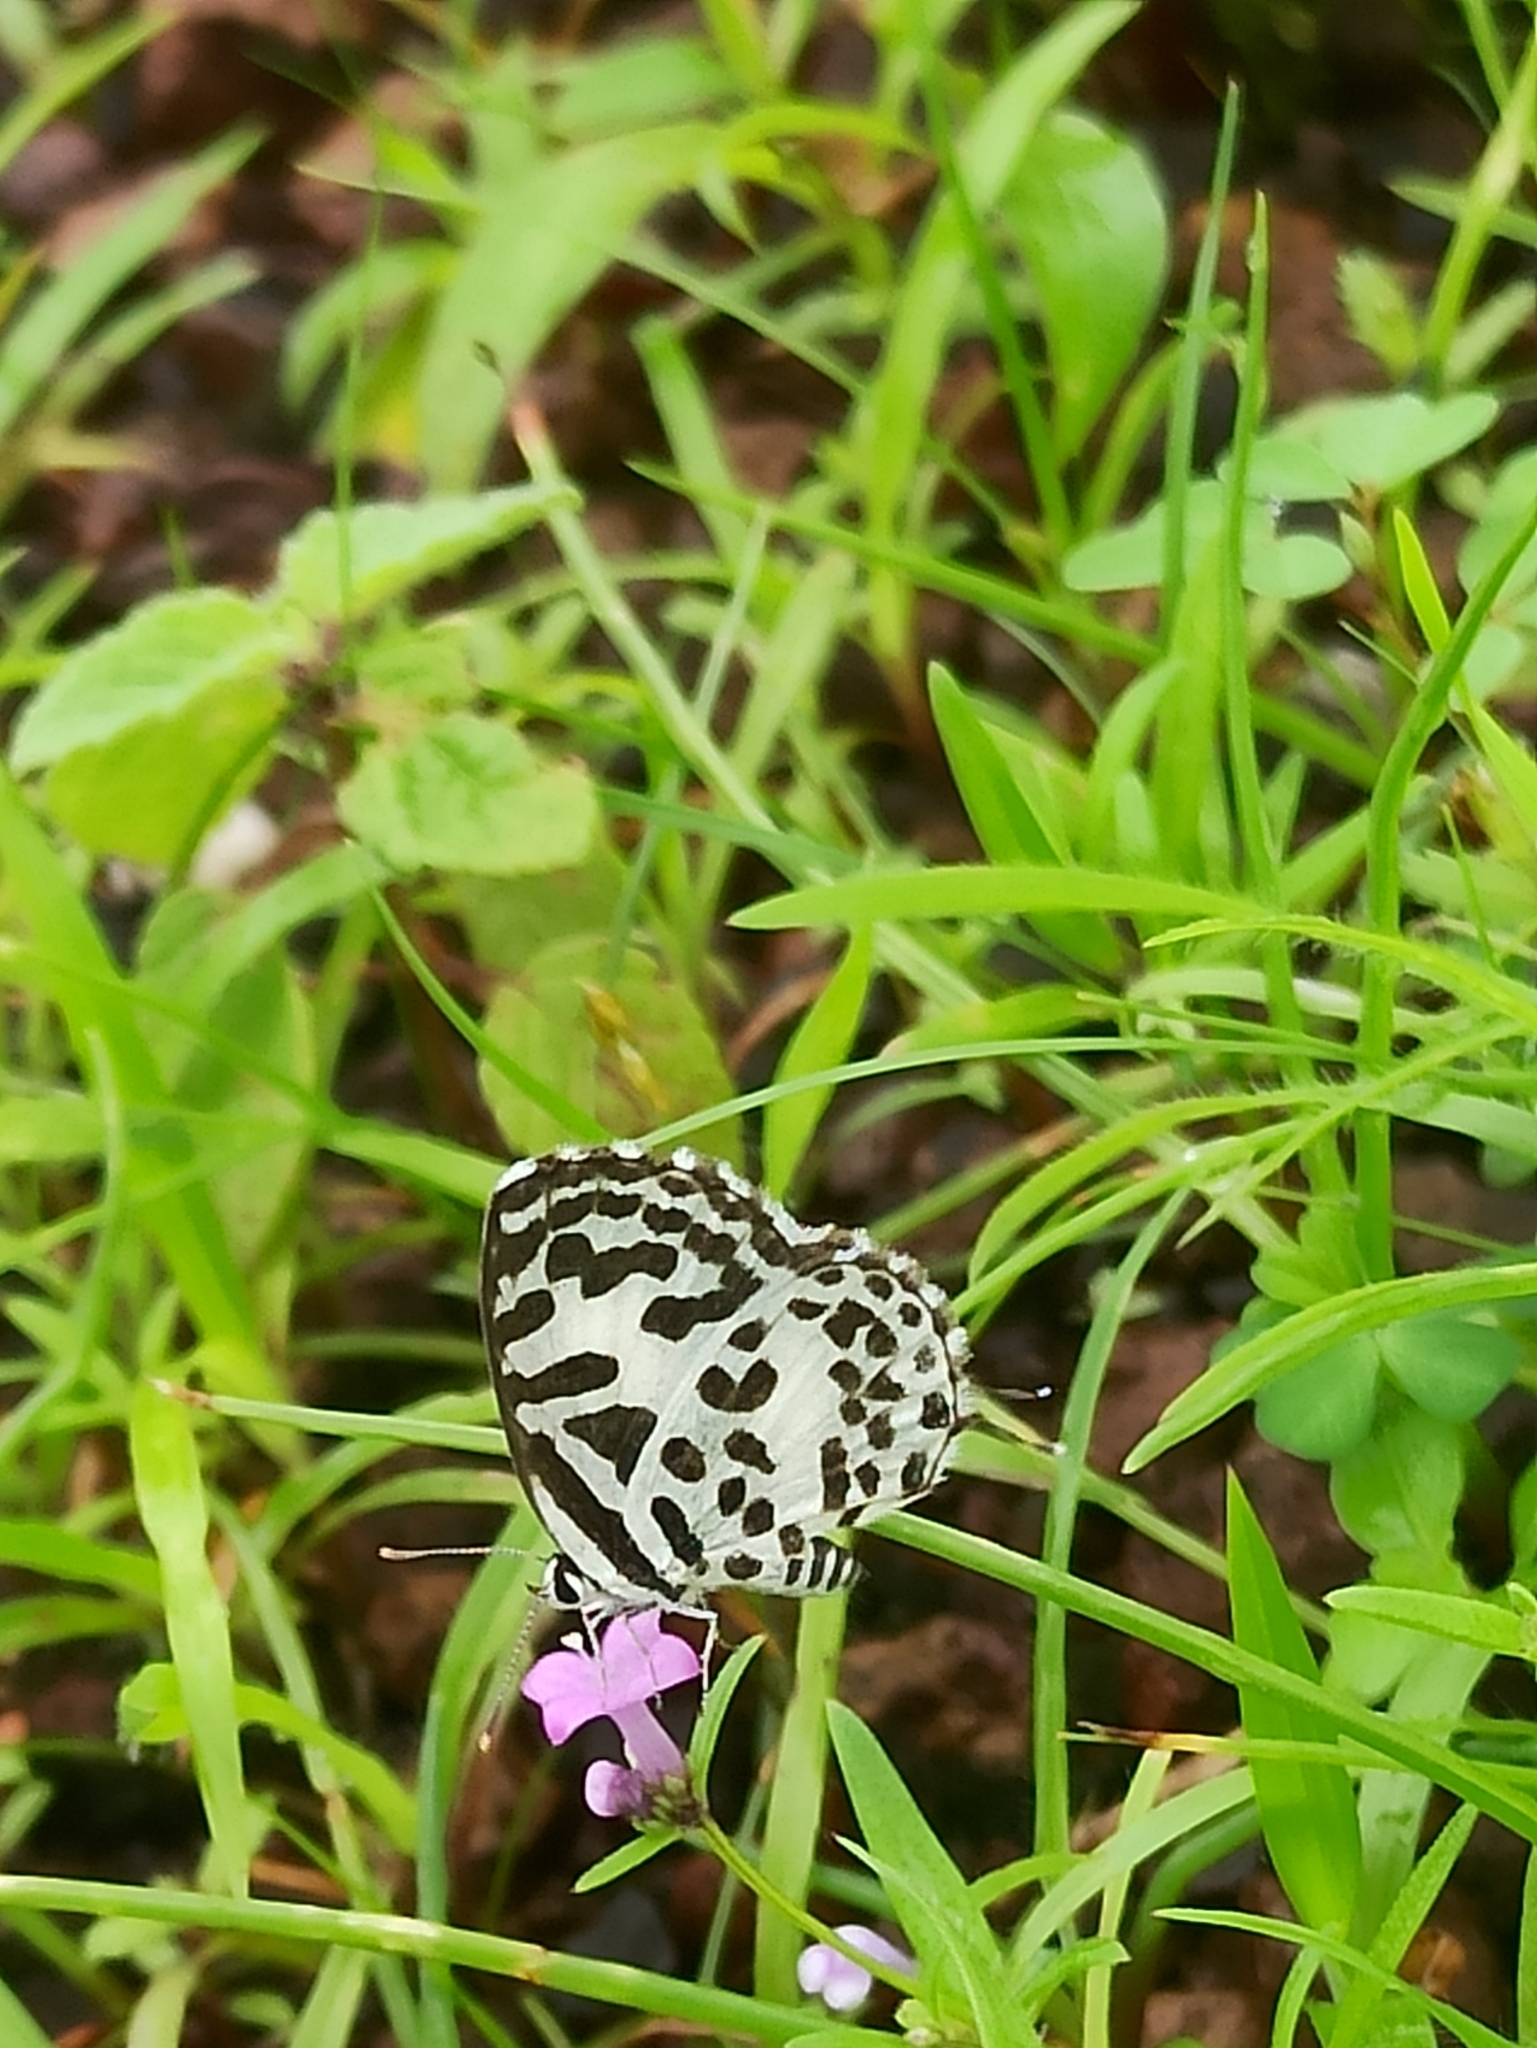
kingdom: Animalia
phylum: Arthropoda
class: Insecta
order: Lepidoptera
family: Lycaenidae
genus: Castalius
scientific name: Castalius rosimon
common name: Common pierrot
